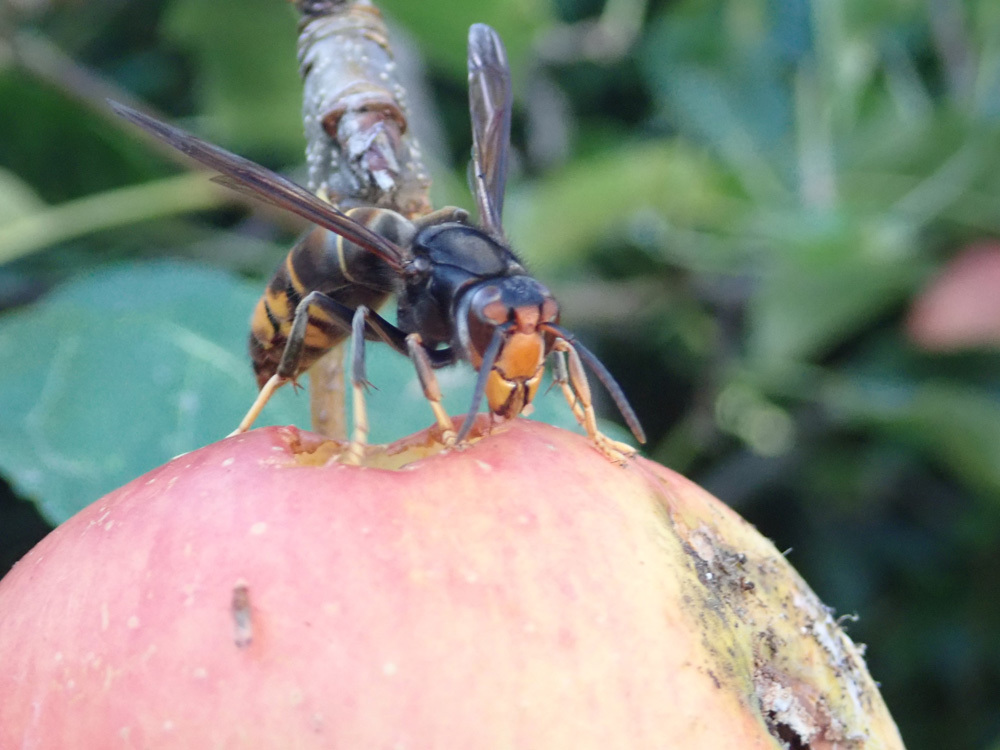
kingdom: Animalia
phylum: Arthropoda
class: Insecta
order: Hymenoptera
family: Vespidae
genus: Vespa
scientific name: Vespa velutina
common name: Asian hornet
